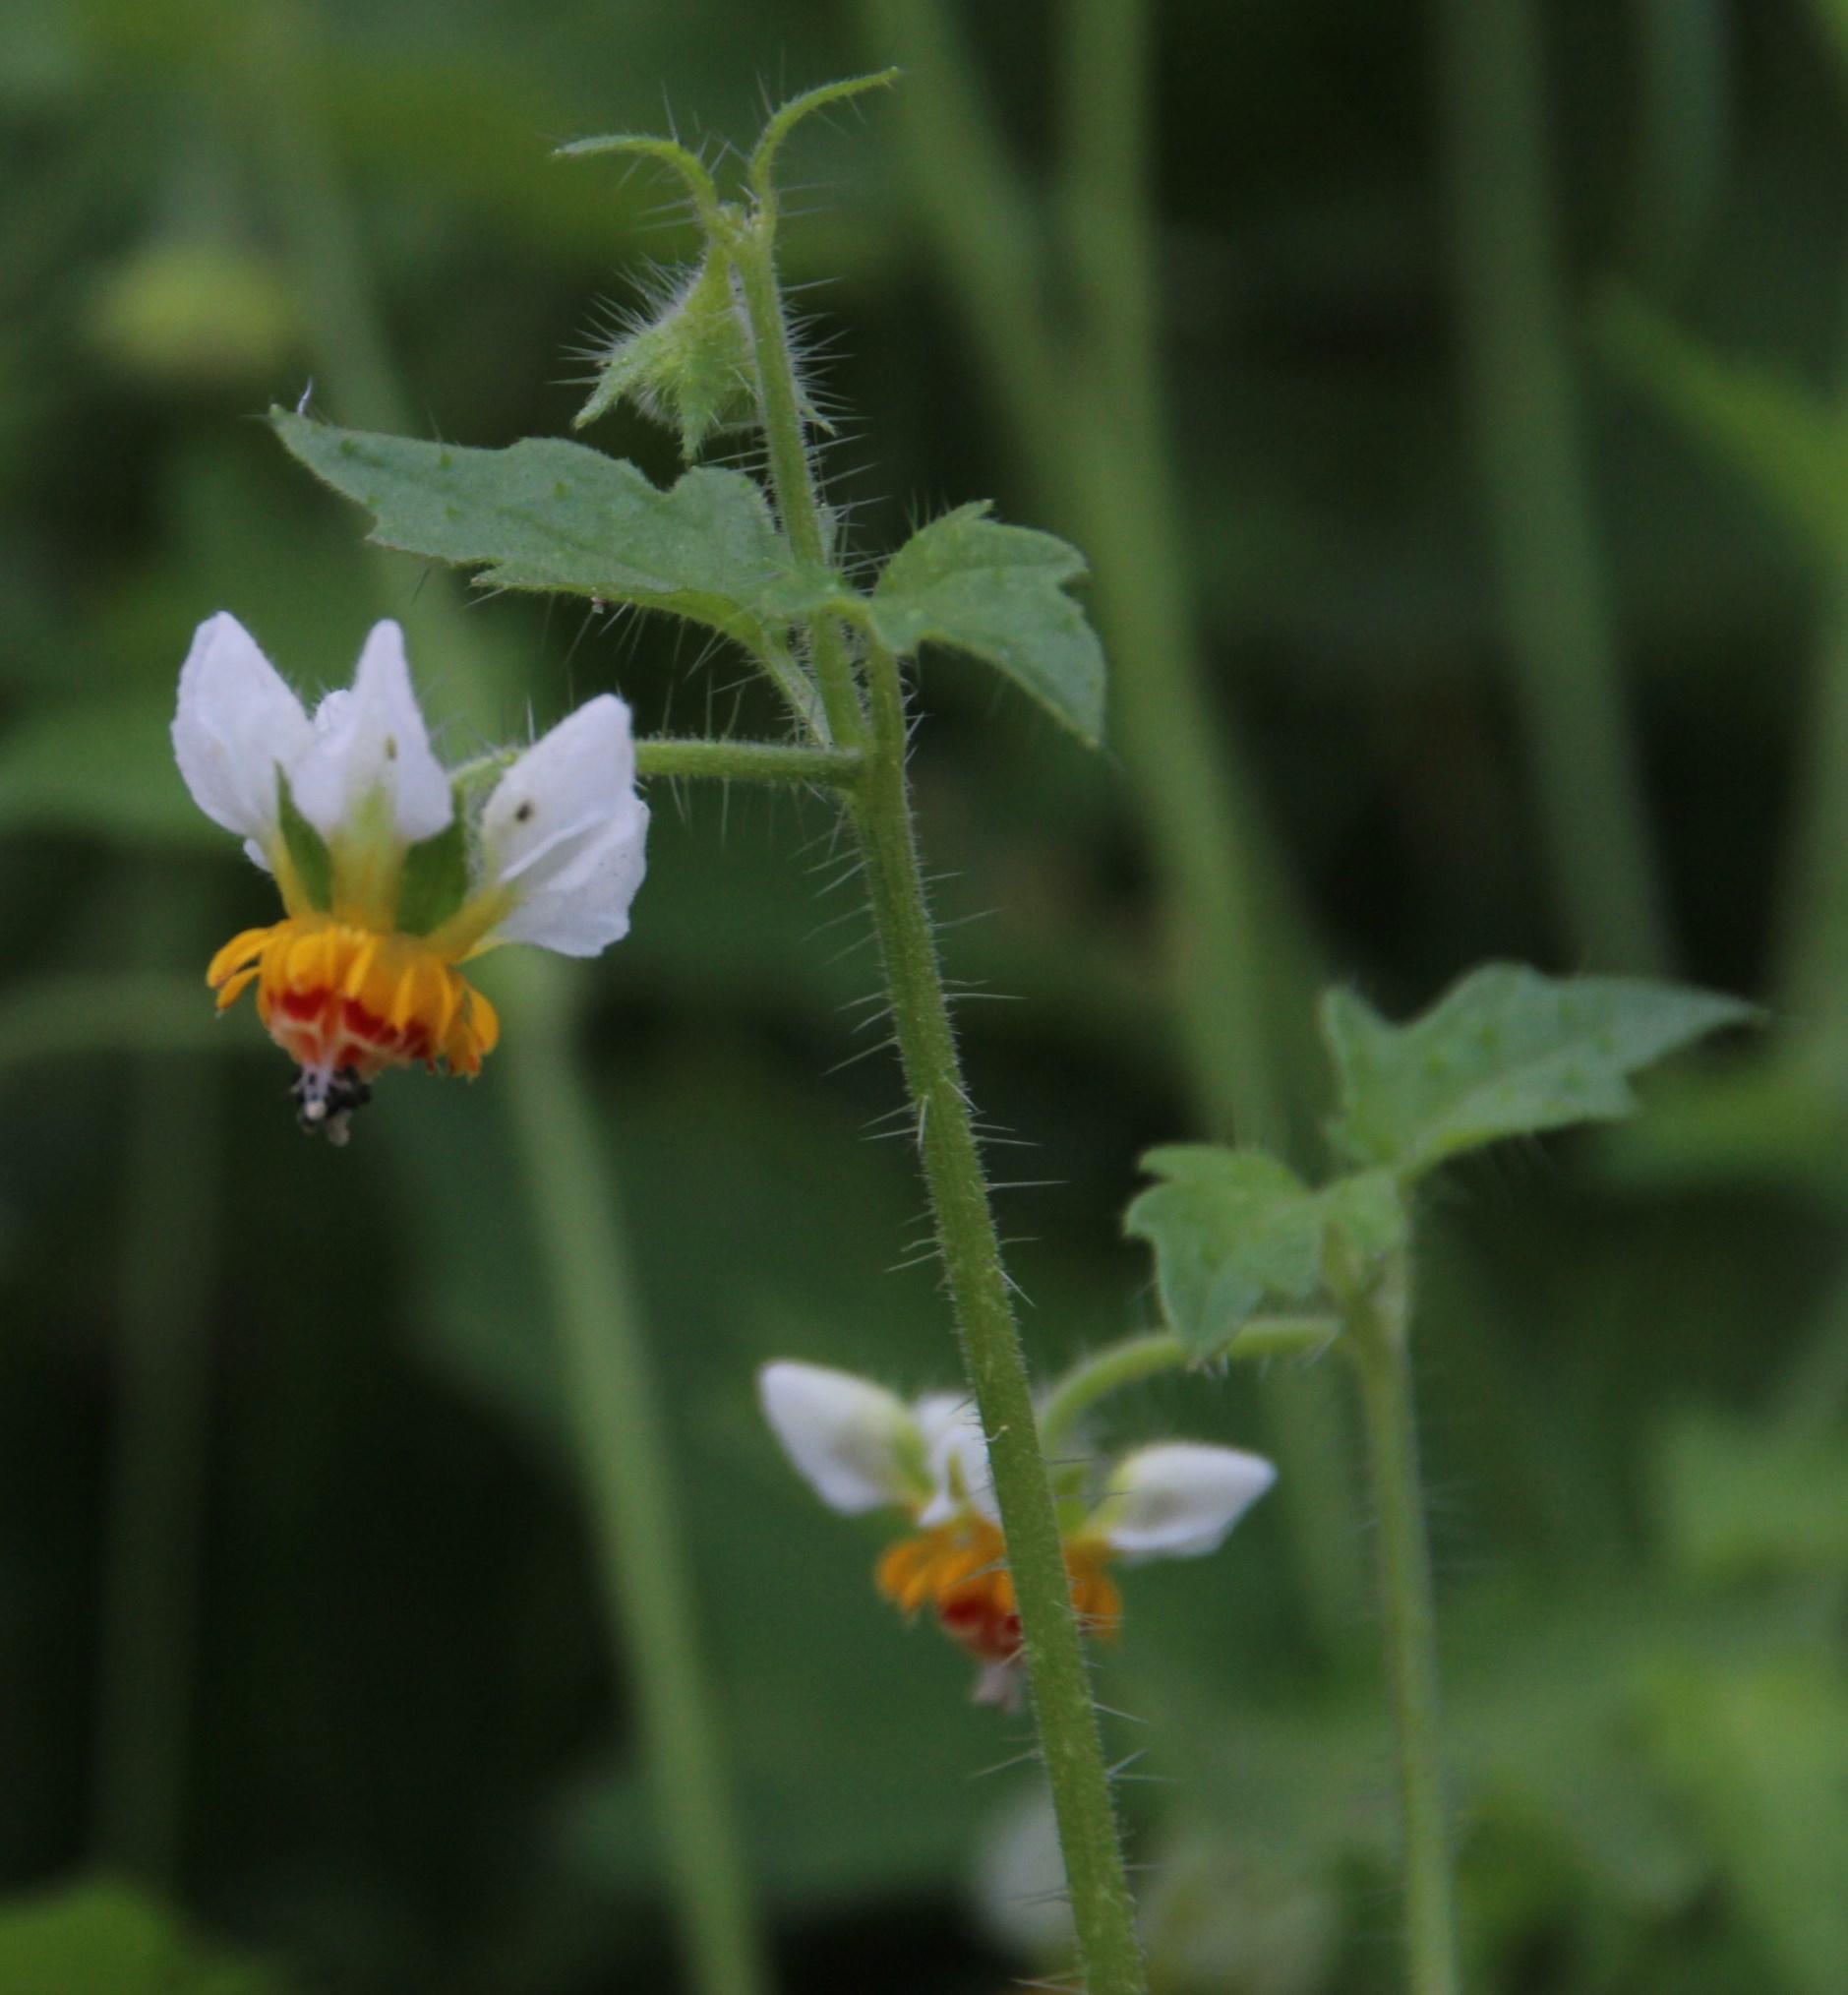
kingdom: Plantae
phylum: Tracheophyta
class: Magnoliopsida
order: Cornales
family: Loasaceae
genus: Loasa
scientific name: Loasa triloba
